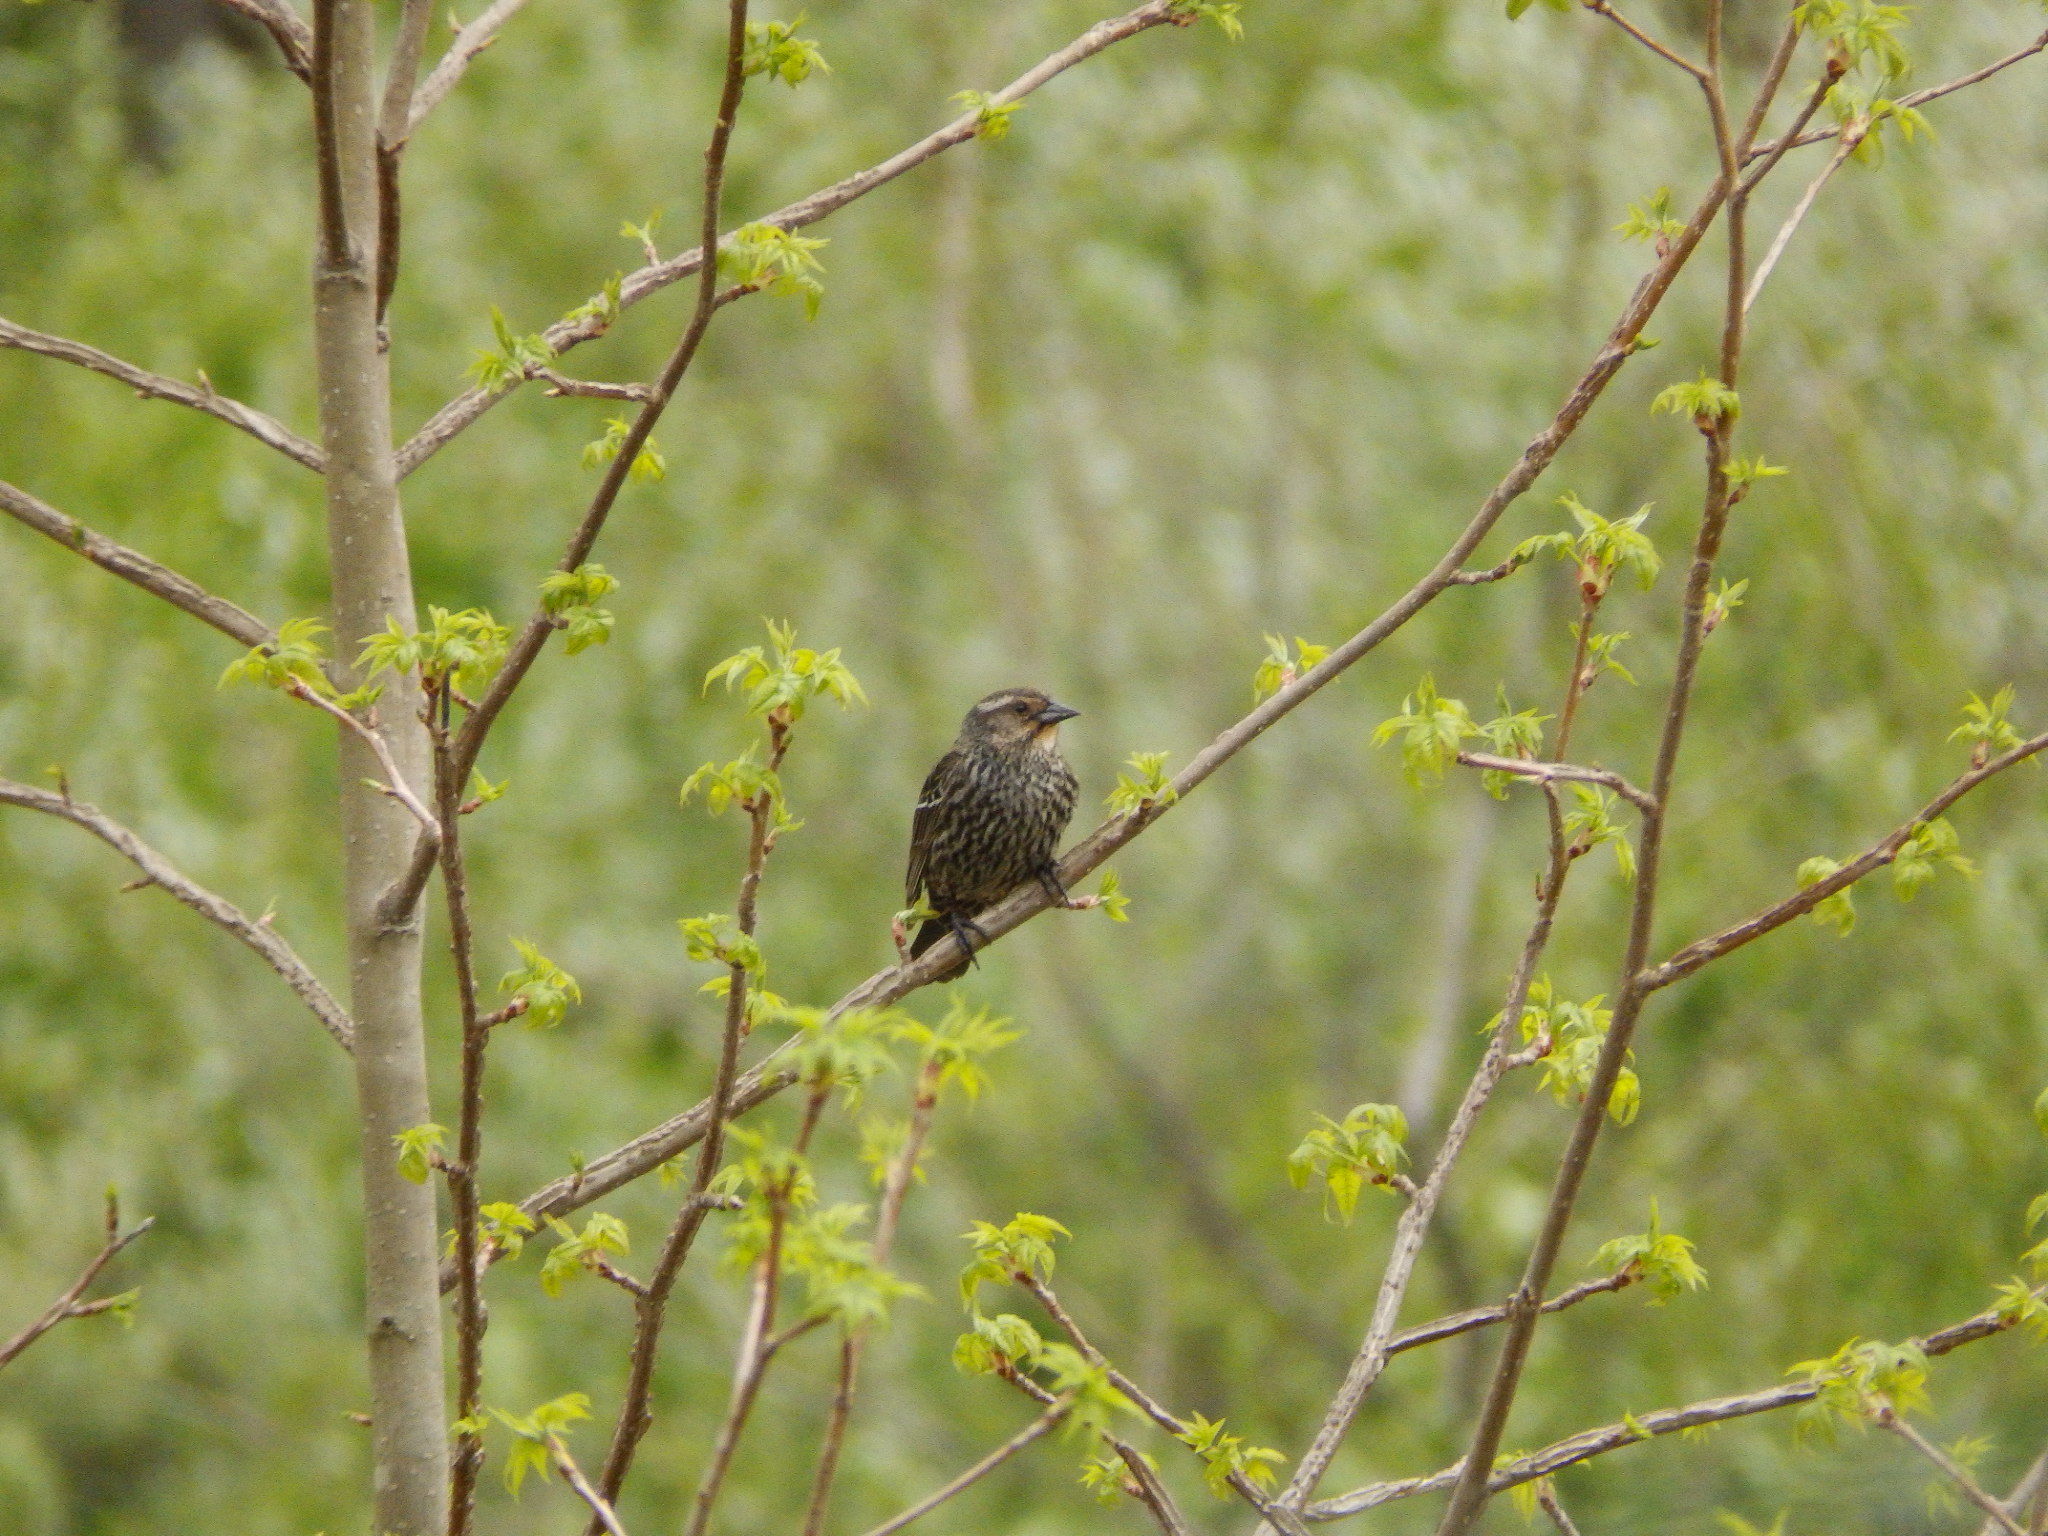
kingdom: Animalia
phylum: Chordata
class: Aves
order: Passeriformes
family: Icteridae
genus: Agelaius
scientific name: Agelaius phoeniceus
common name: Red-winged blackbird
